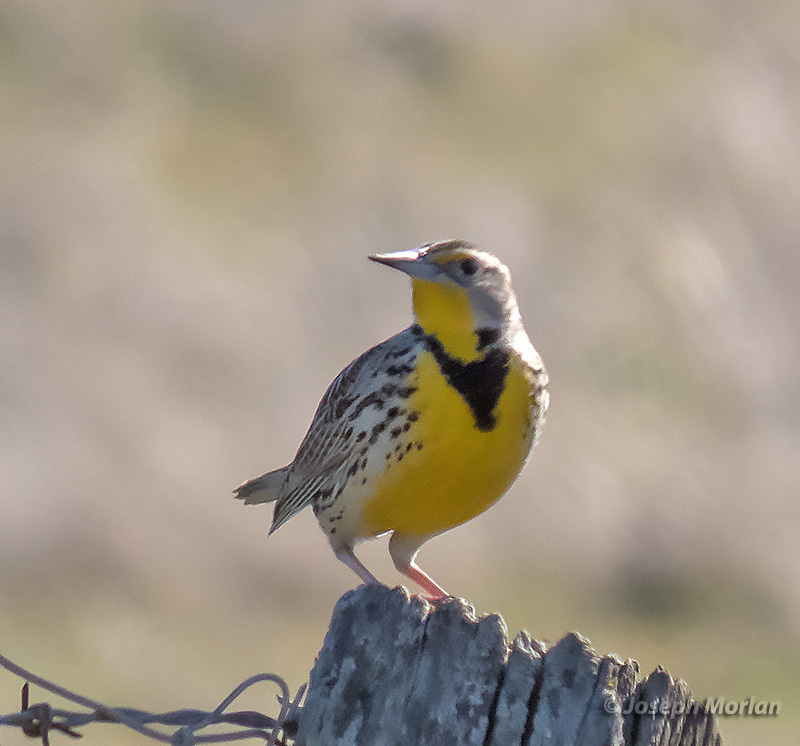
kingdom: Animalia
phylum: Chordata
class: Aves
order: Passeriformes
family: Icteridae
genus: Sturnella
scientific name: Sturnella neglecta
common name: Western meadowlark
